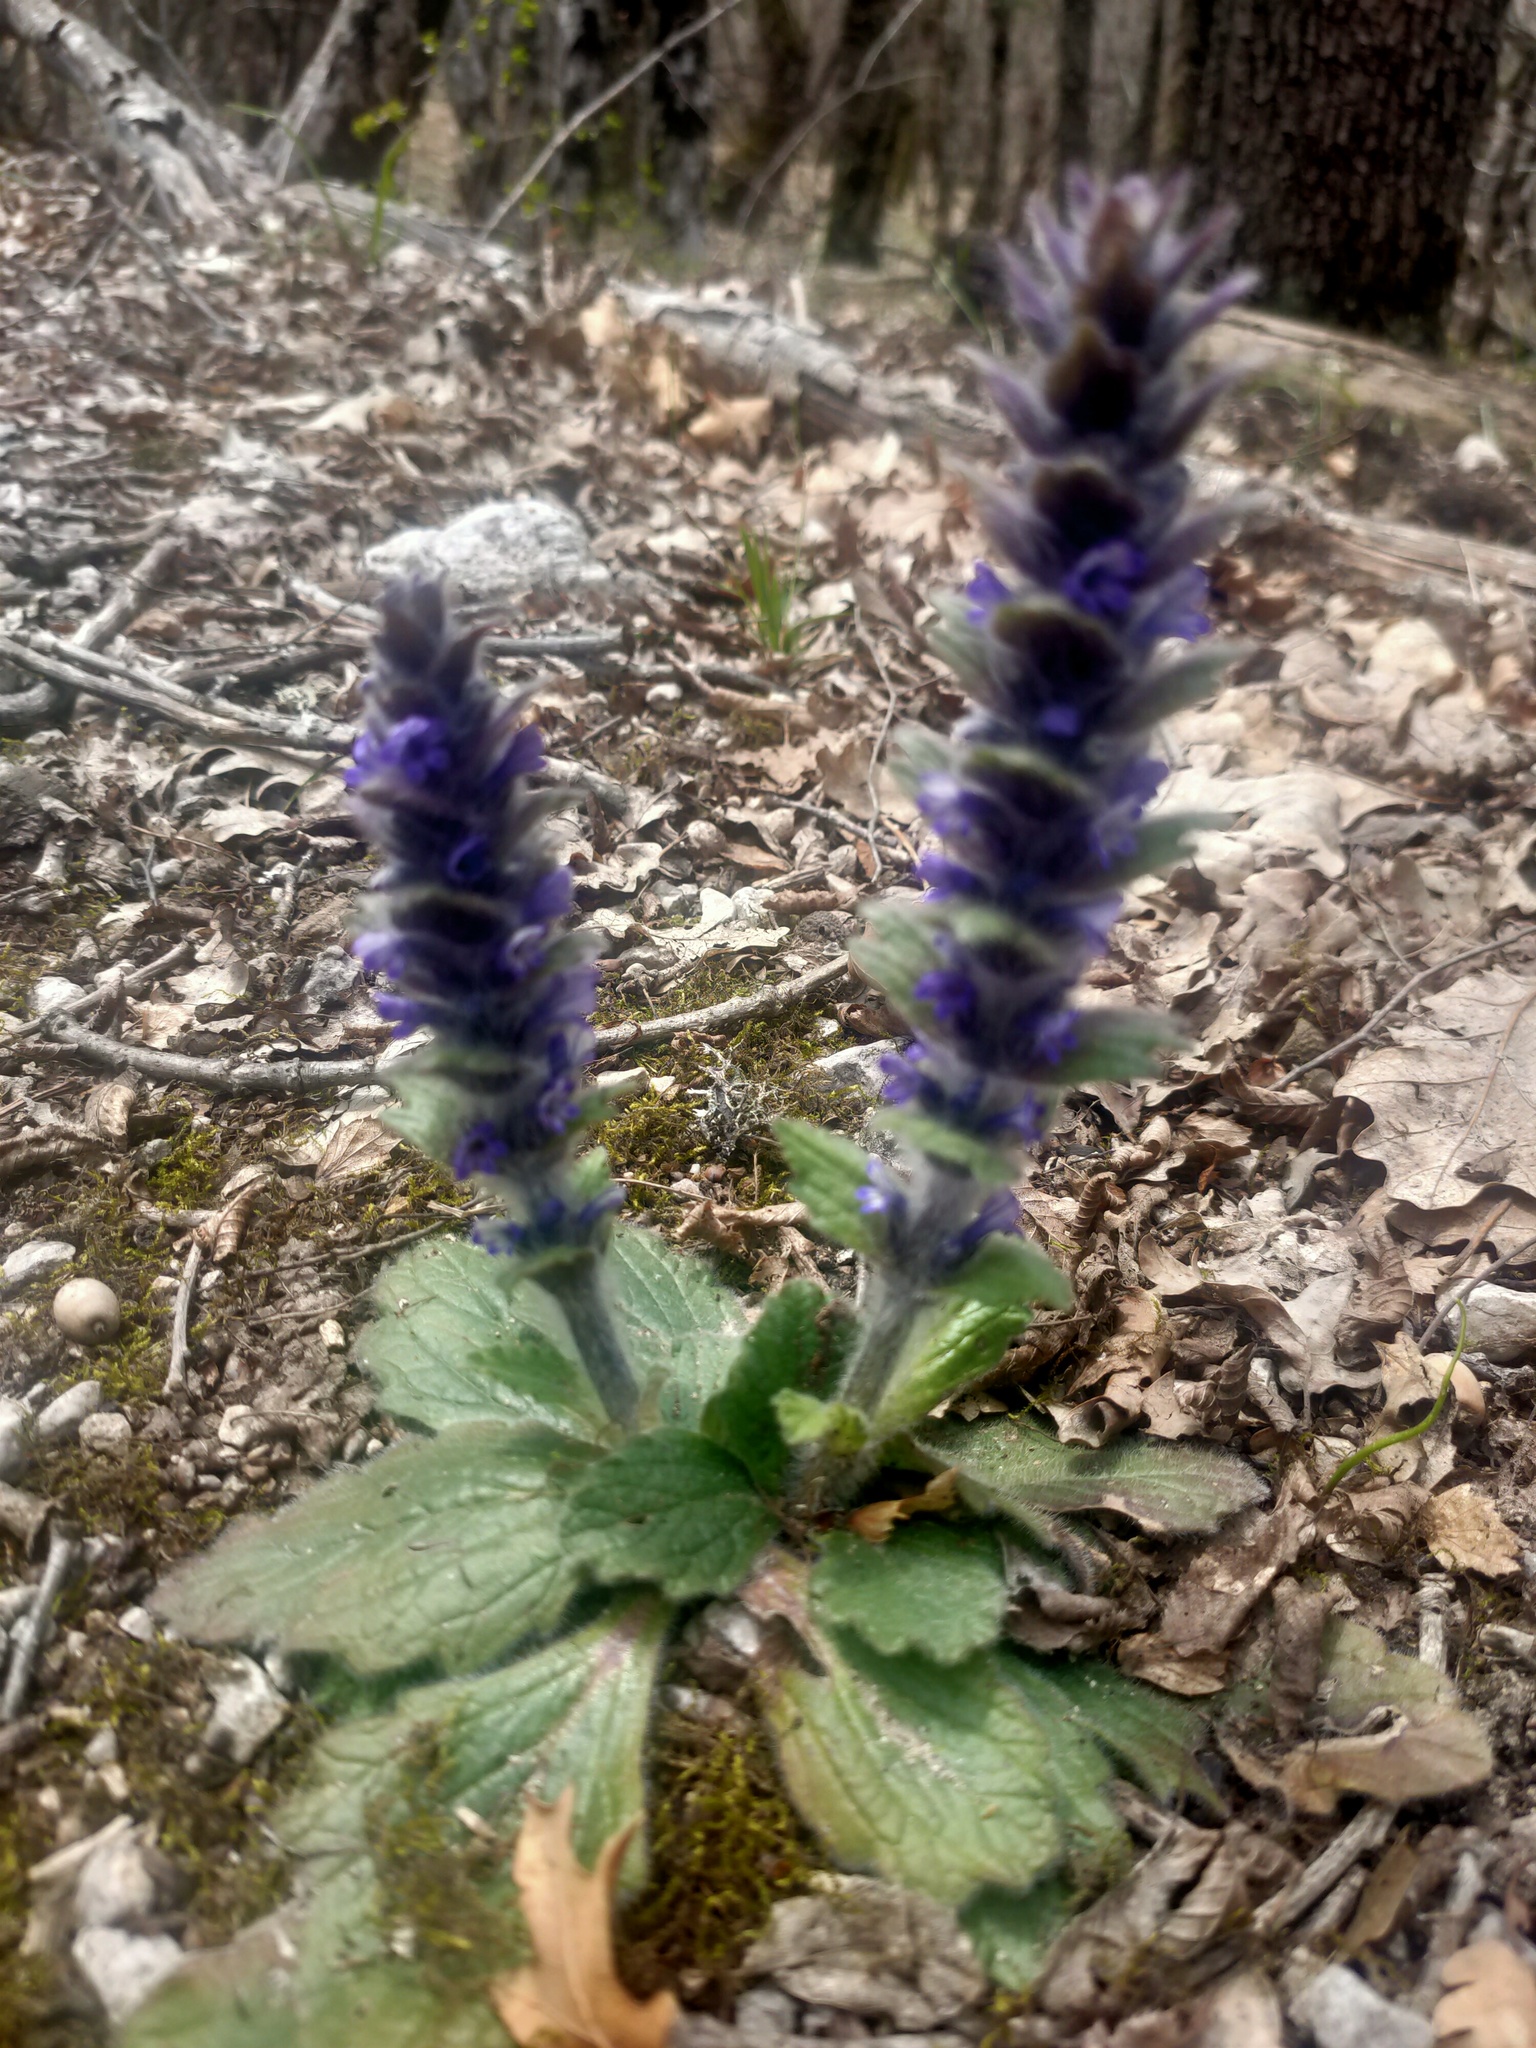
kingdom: Plantae
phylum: Tracheophyta
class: Magnoliopsida
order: Lamiales
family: Lamiaceae
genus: Ajuga
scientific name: Ajuga orientalis
